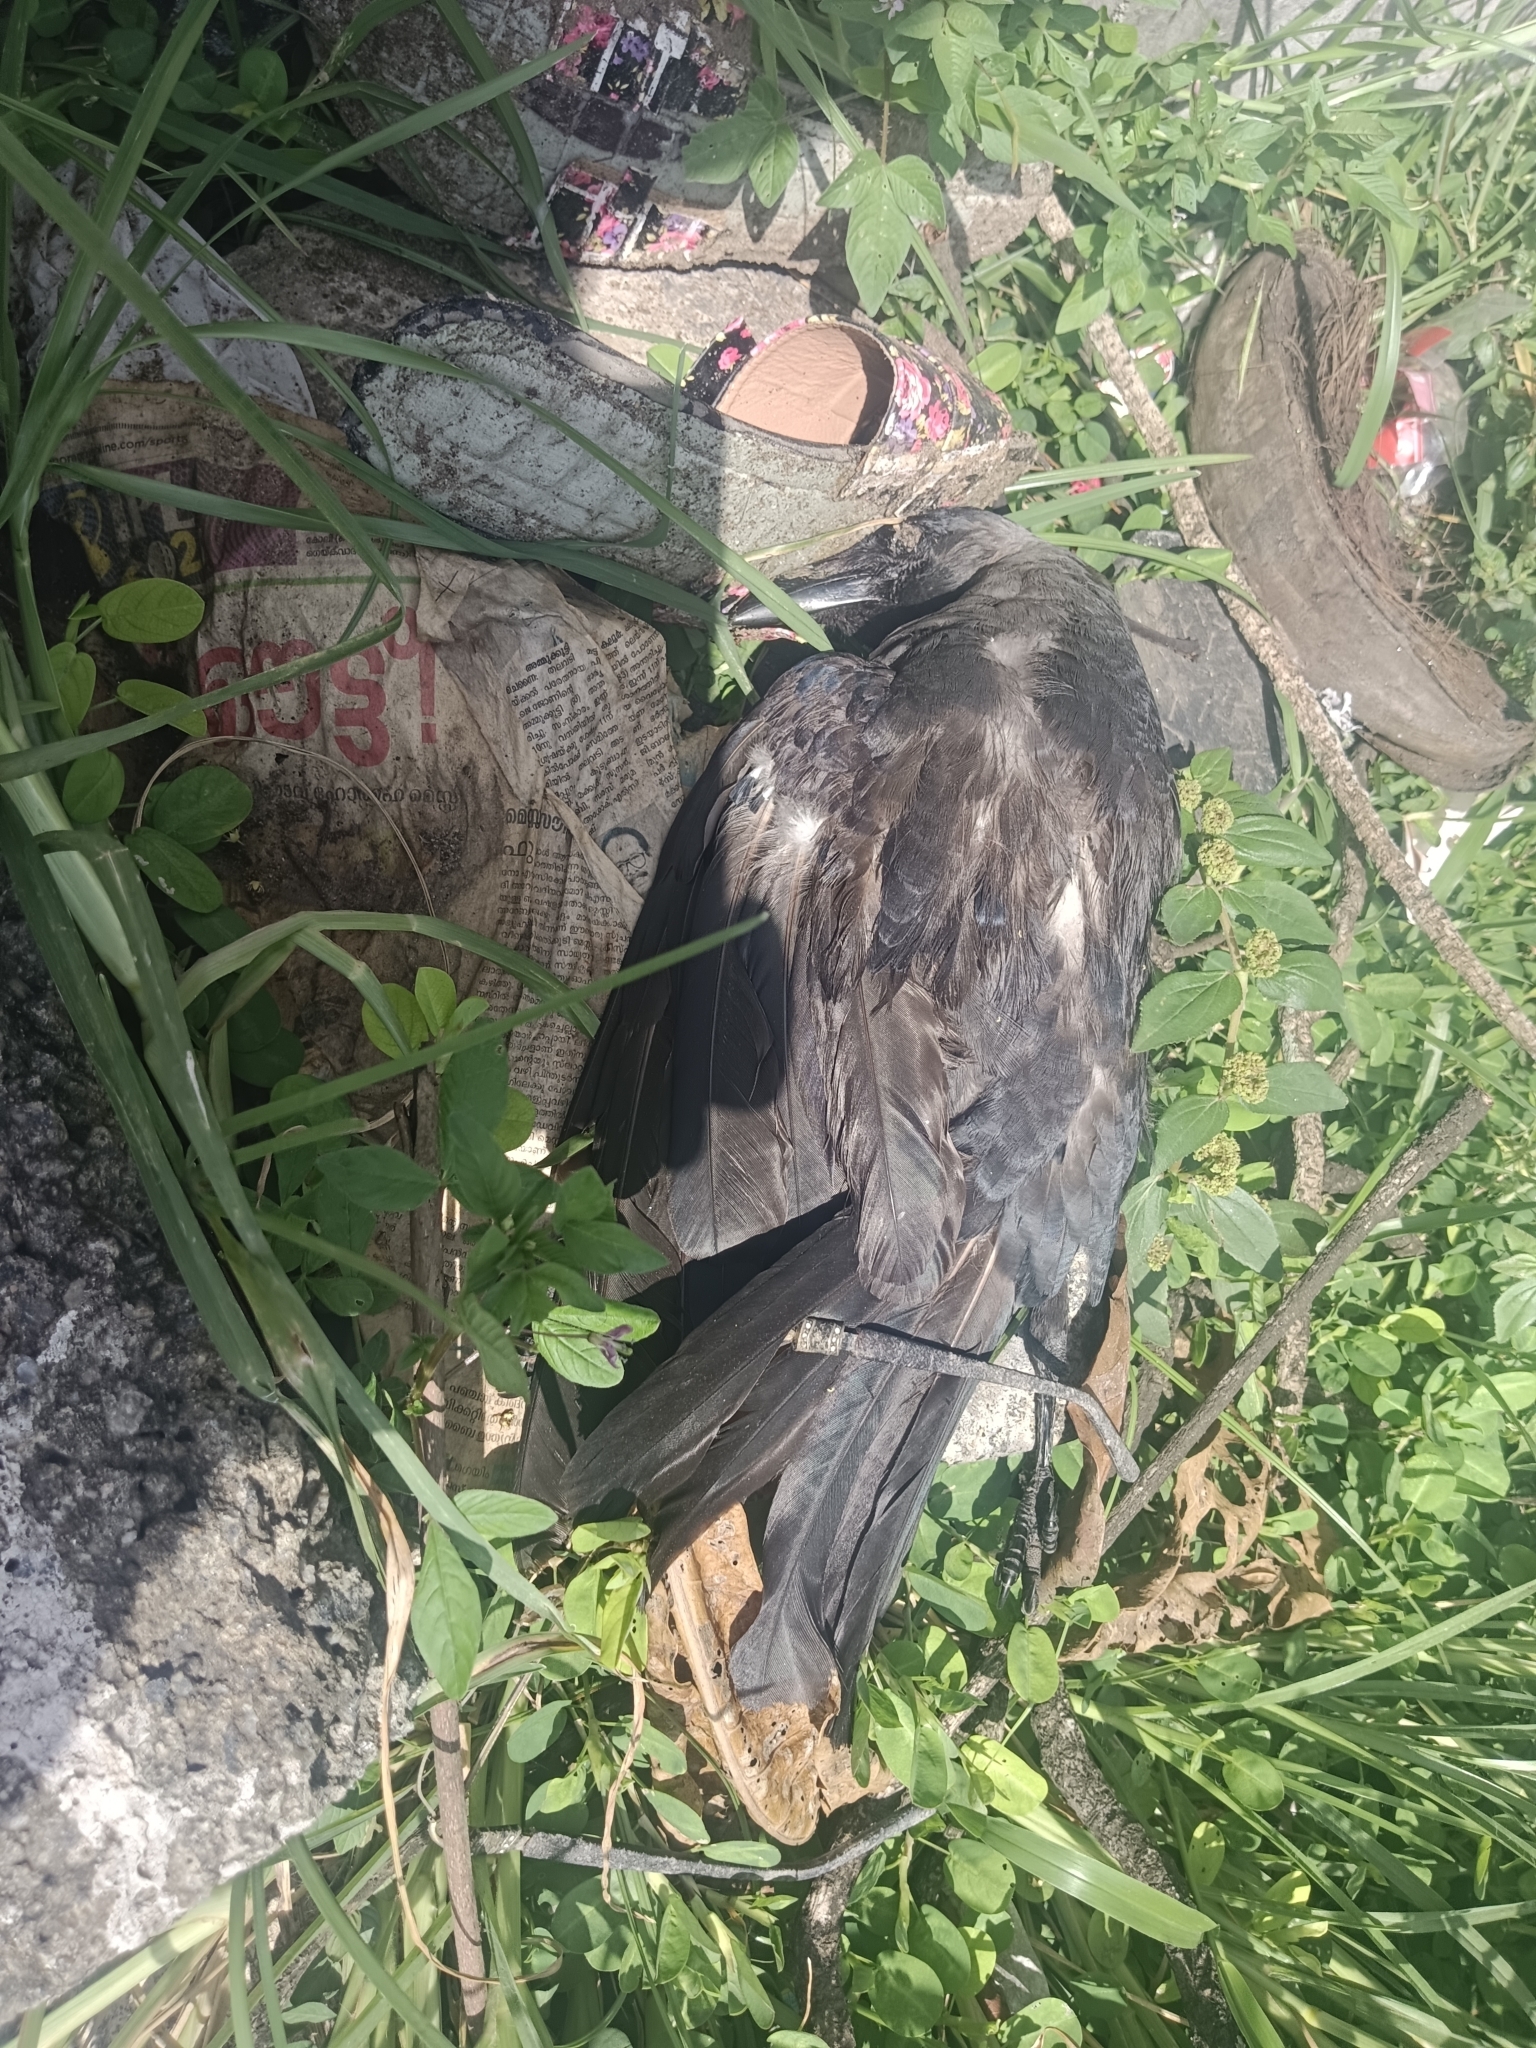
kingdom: Animalia
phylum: Chordata
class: Aves
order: Passeriformes
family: Corvidae
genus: Corvus
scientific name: Corvus splendens
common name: House crow
